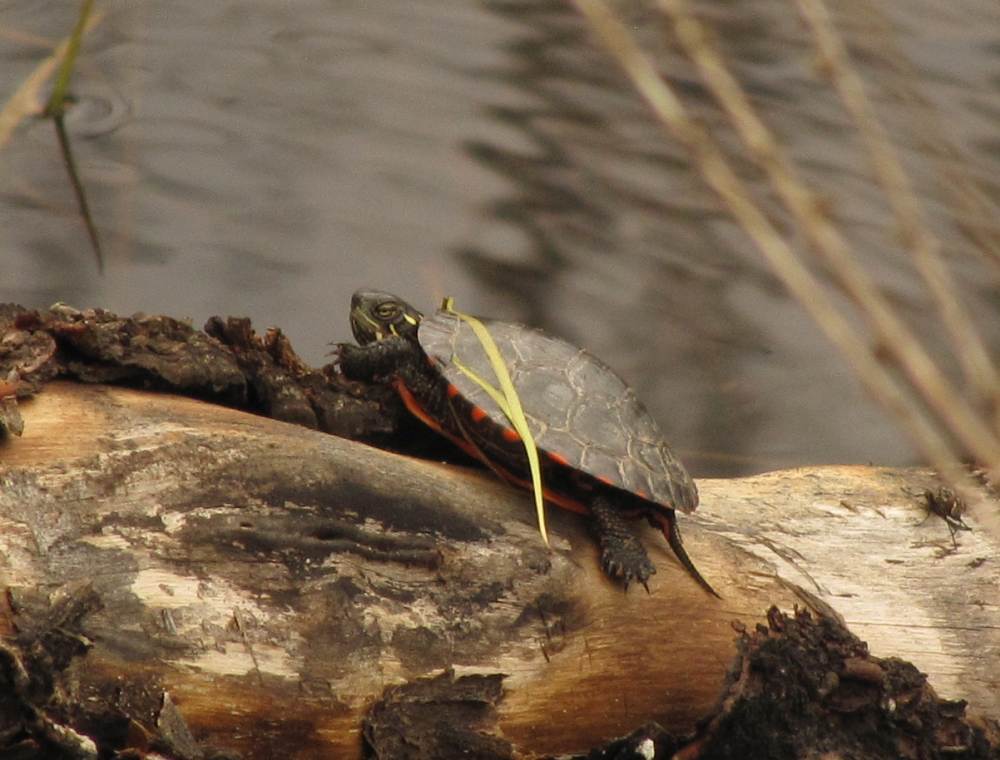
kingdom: Animalia
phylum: Chordata
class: Testudines
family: Emydidae
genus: Chrysemys
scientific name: Chrysemys picta
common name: Painted turtle
